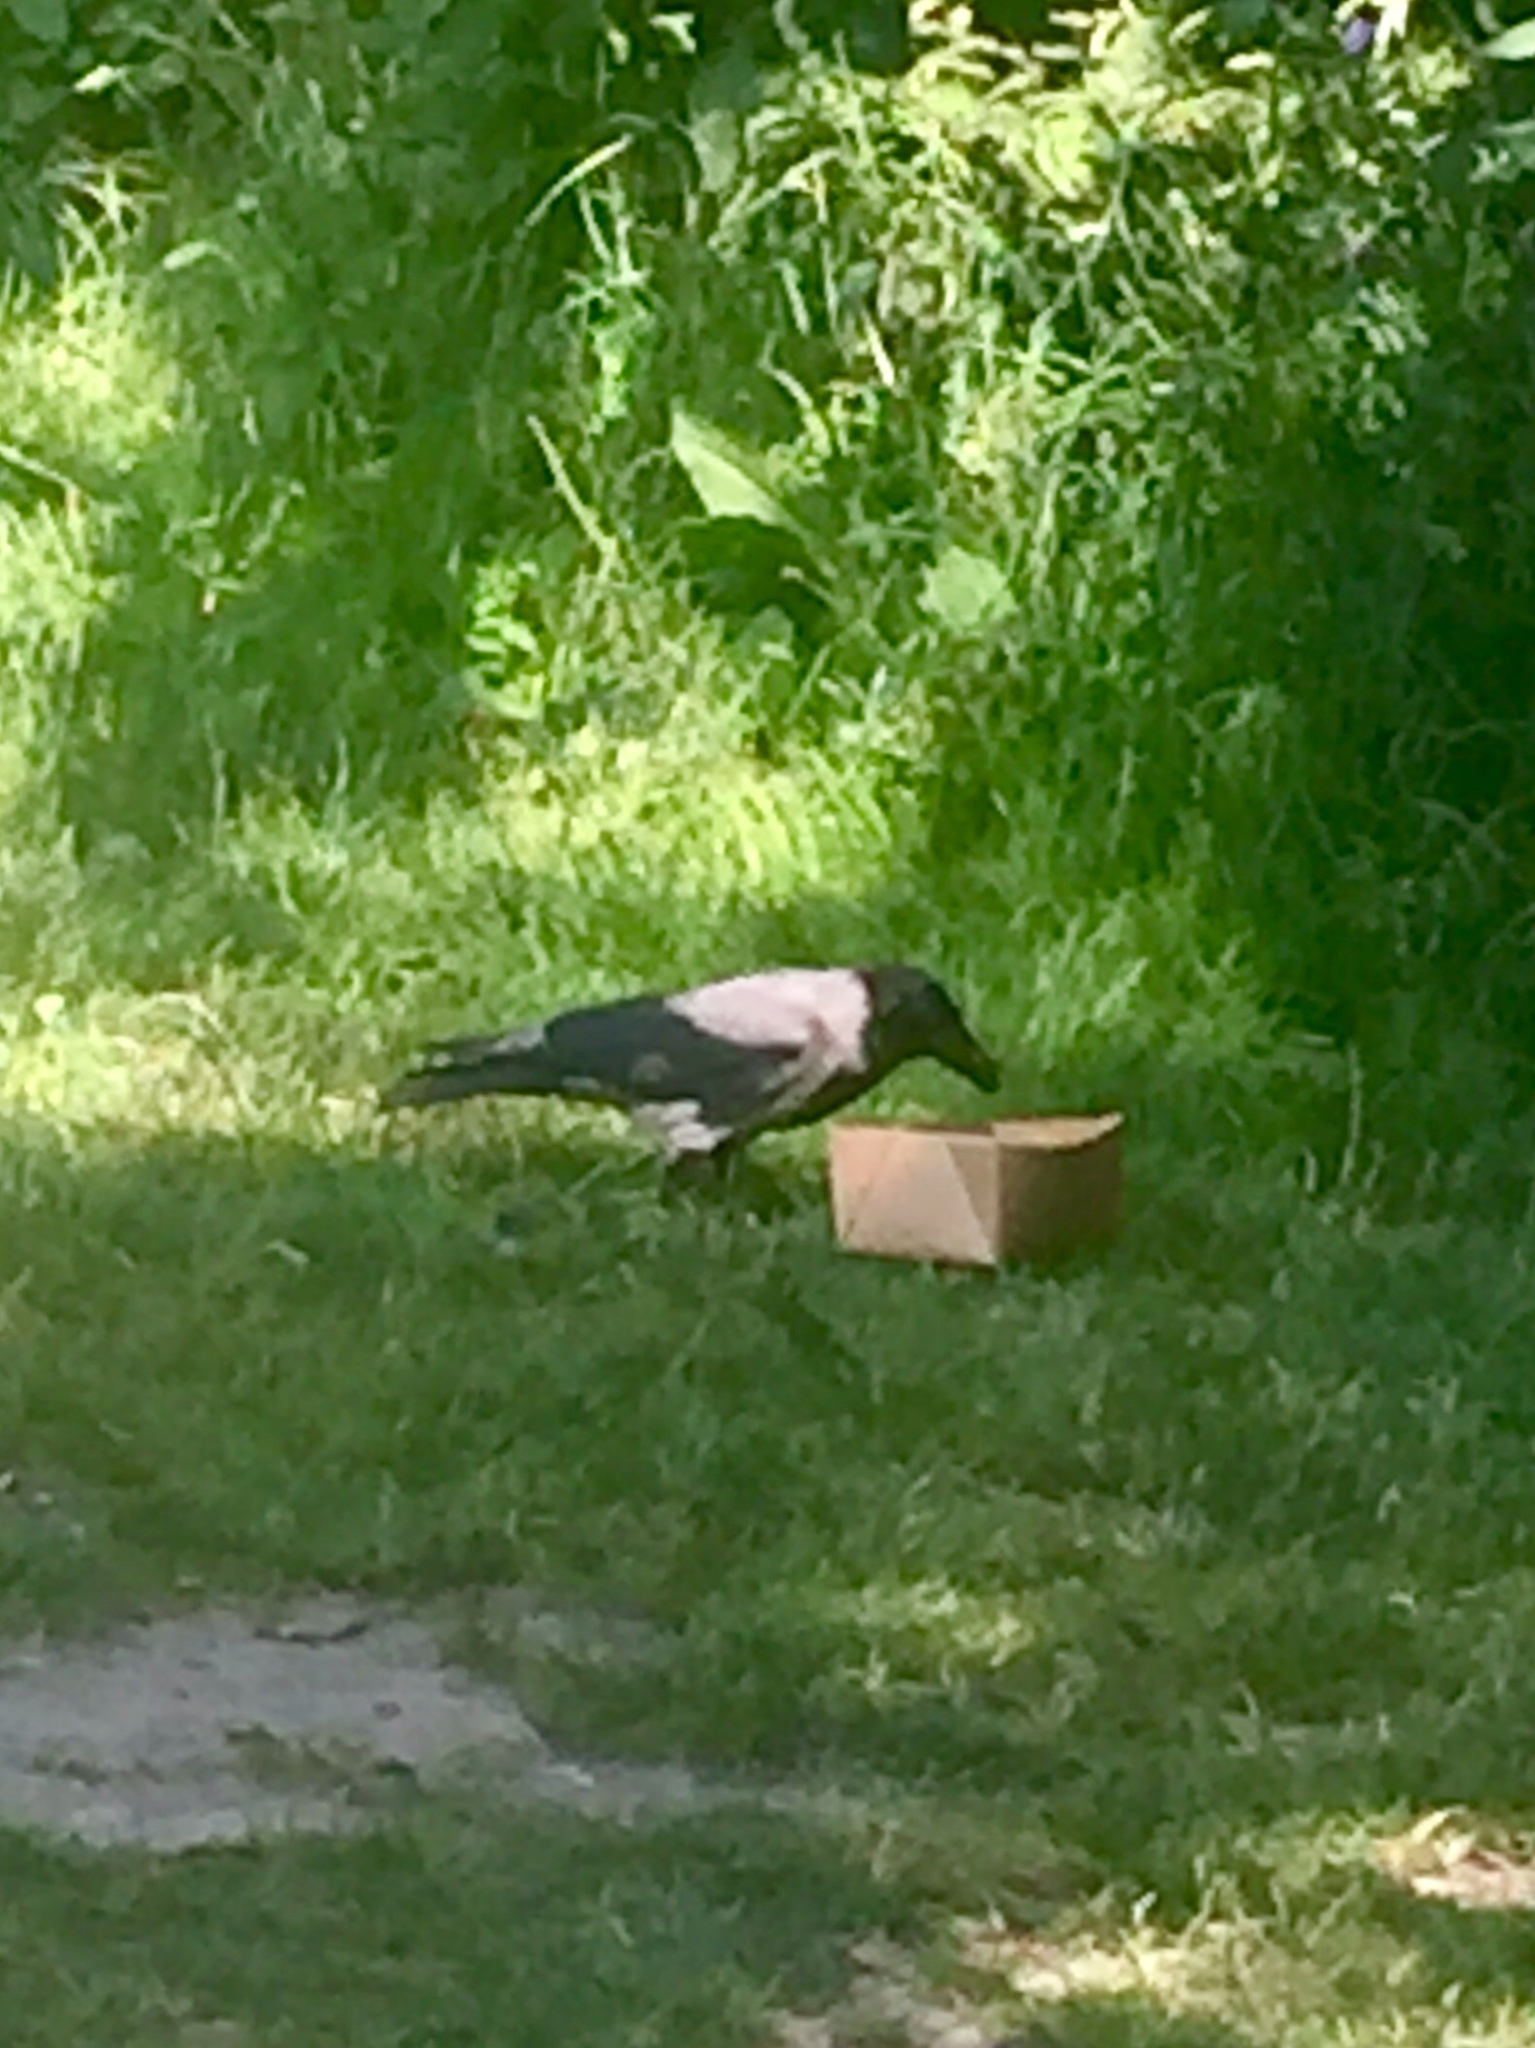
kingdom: Animalia
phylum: Chordata
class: Aves
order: Passeriformes
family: Corvidae
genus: Corvus
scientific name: Corvus cornix
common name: Hooded crow
